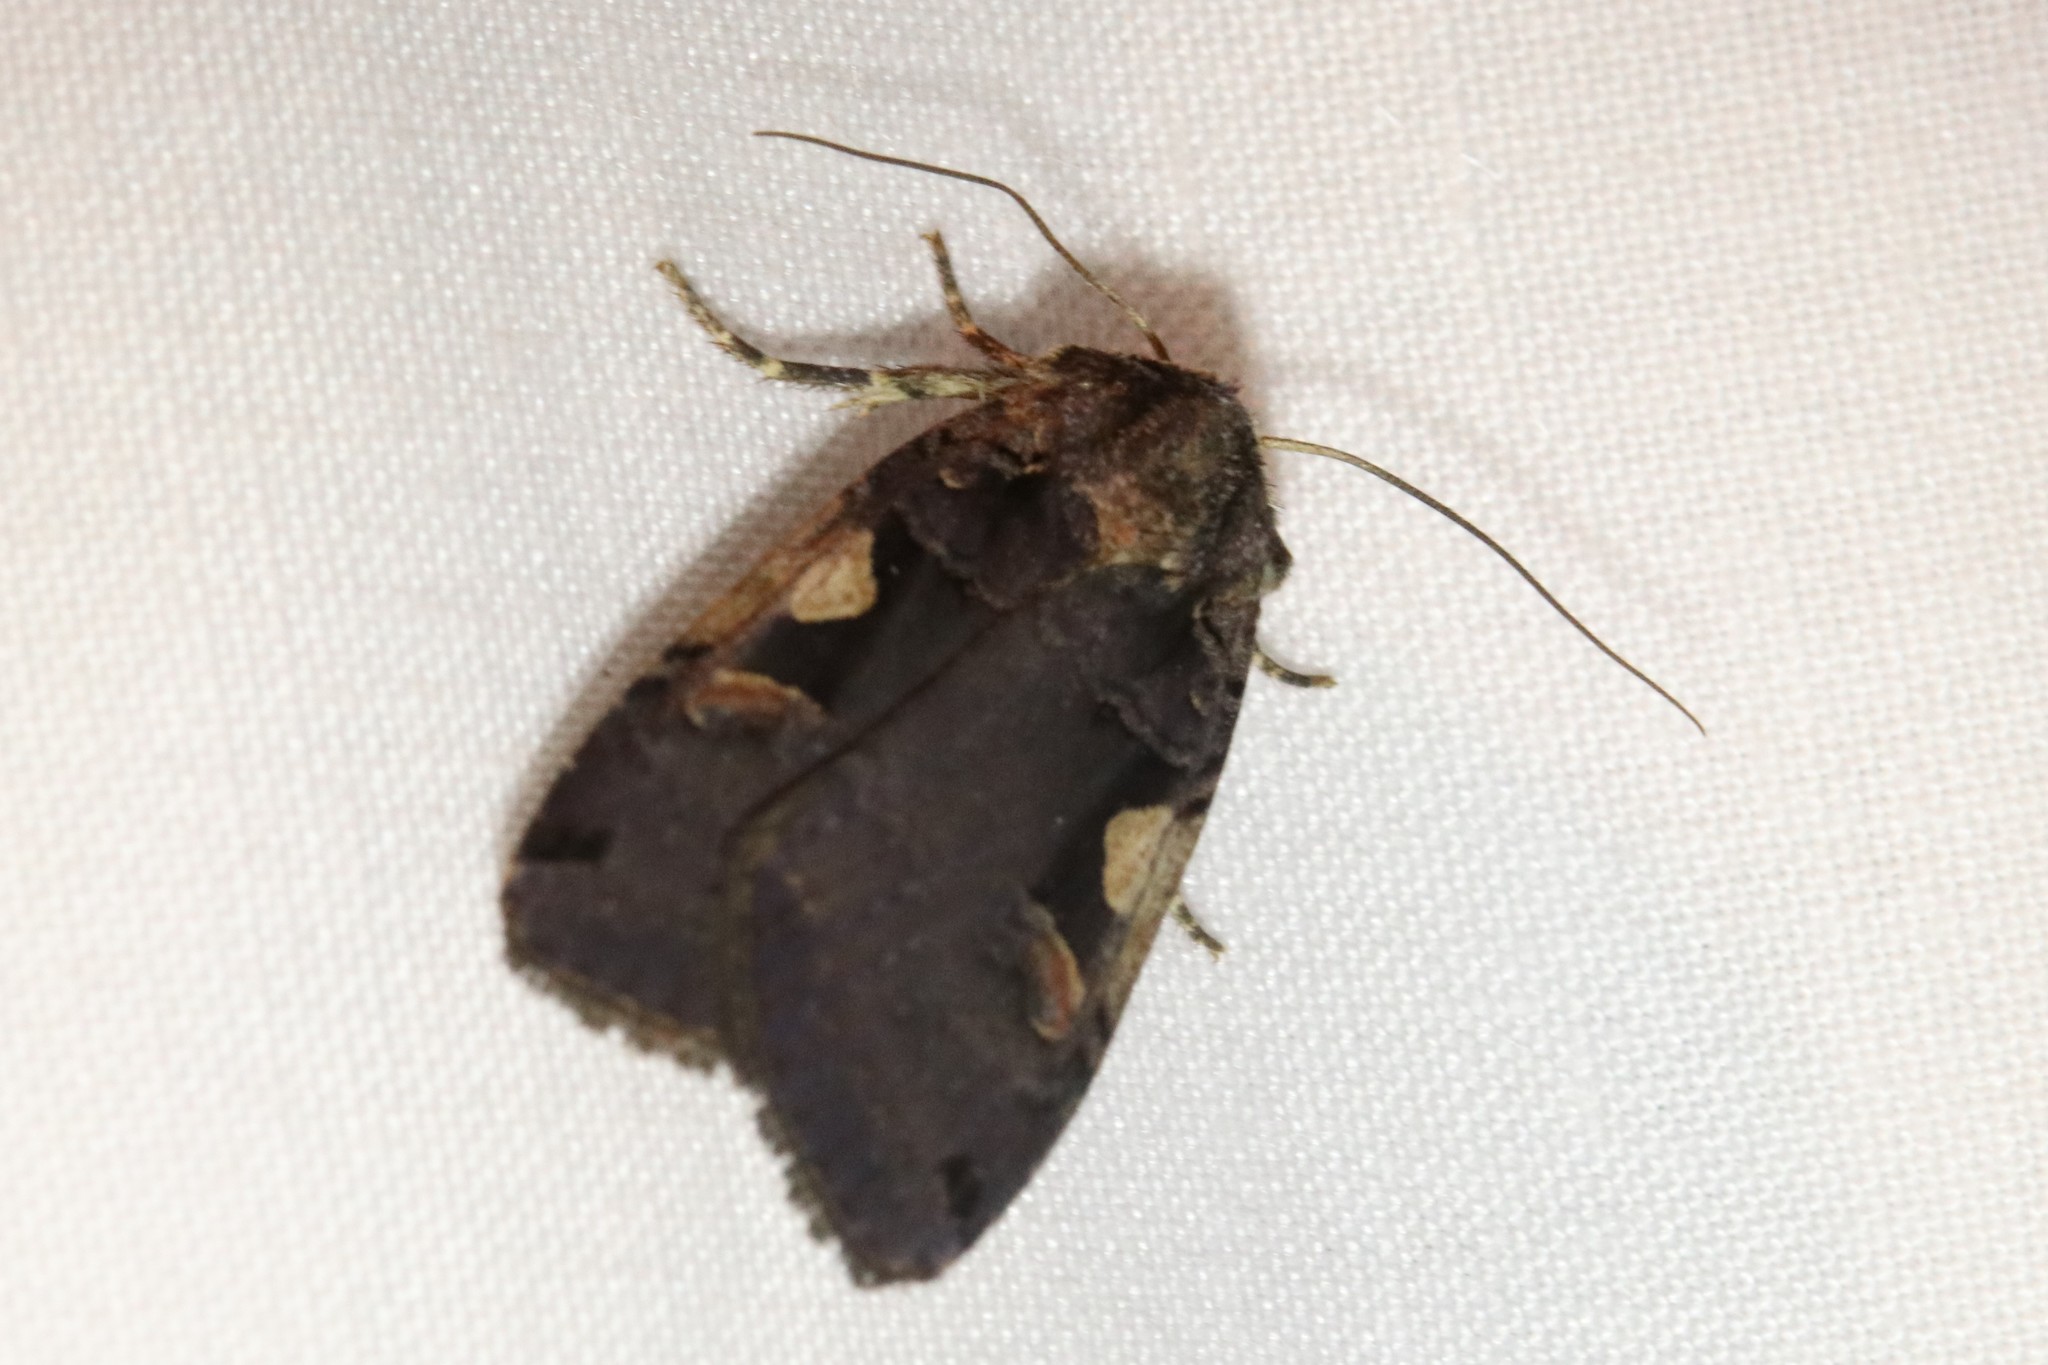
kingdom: Animalia
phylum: Arthropoda
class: Insecta
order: Lepidoptera
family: Noctuidae
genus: Xestia
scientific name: Xestia
